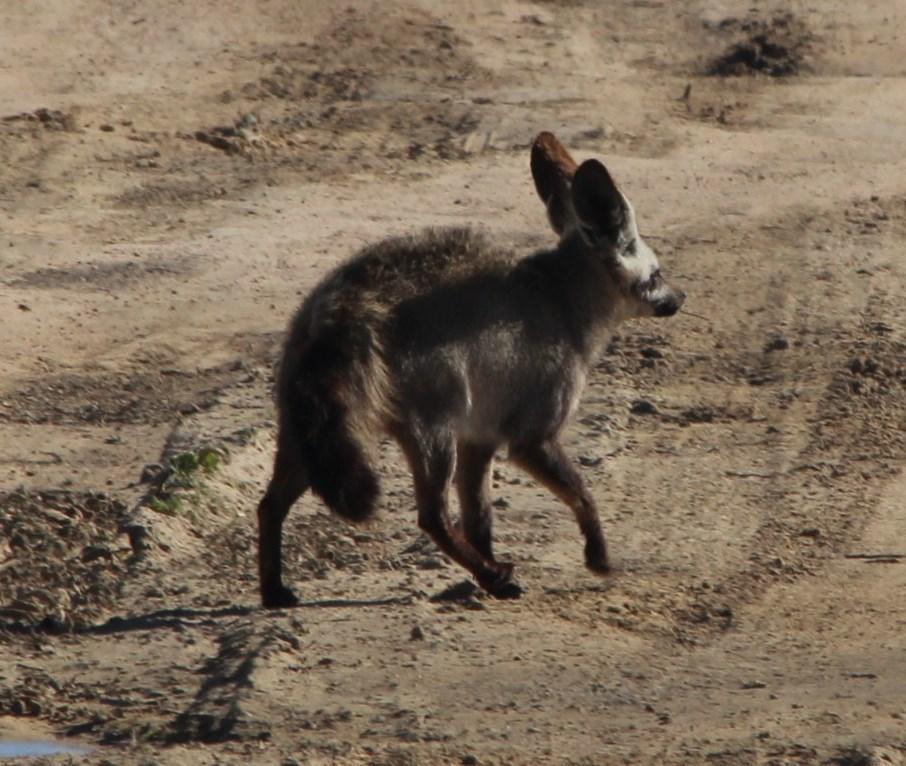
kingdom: Animalia
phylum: Chordata
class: Mammalia
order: Carnivora
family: Canidae
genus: Otocyon
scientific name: Otocyon megalotis
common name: Bat-eared fox
